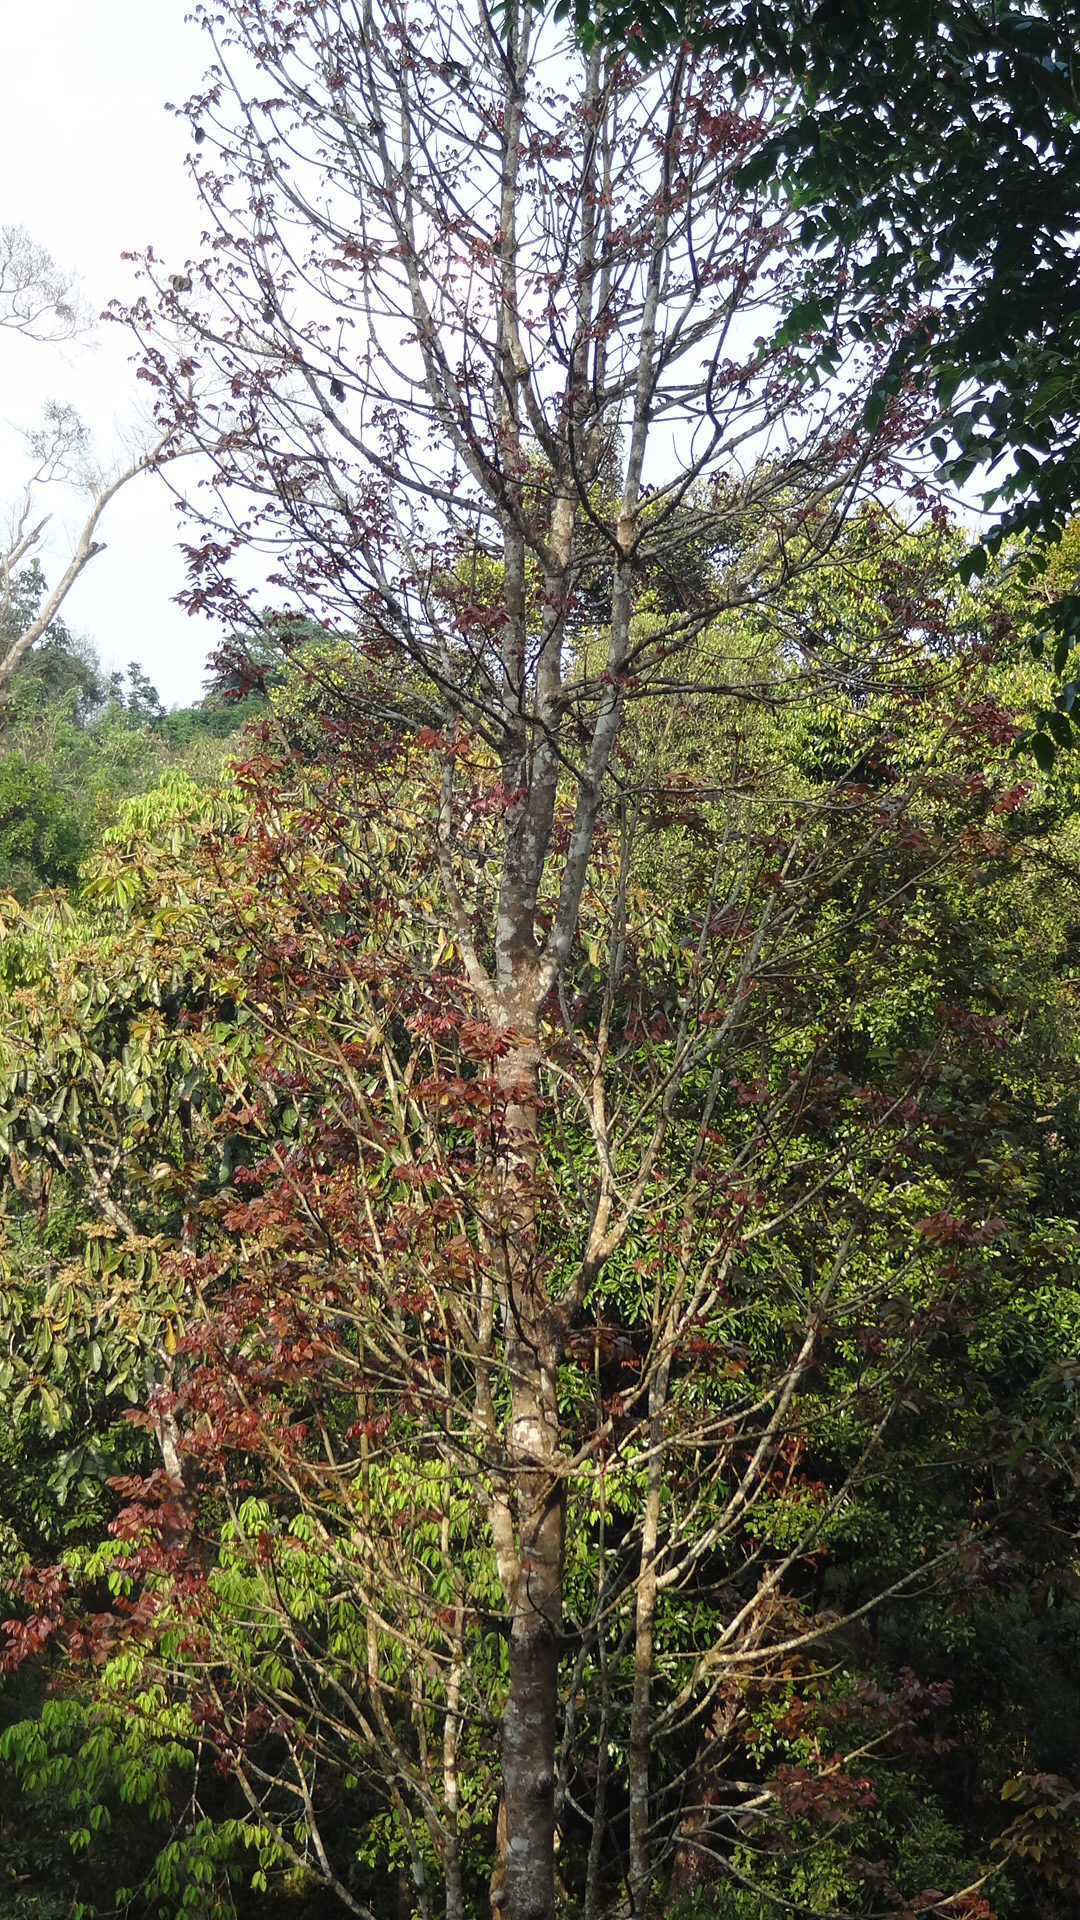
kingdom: Plantae
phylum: Tracheophyta
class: Magnoliopsida
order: Sapindales
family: Burseraceae
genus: Canarium
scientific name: Canarium strictum
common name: Indian white-mahogany
